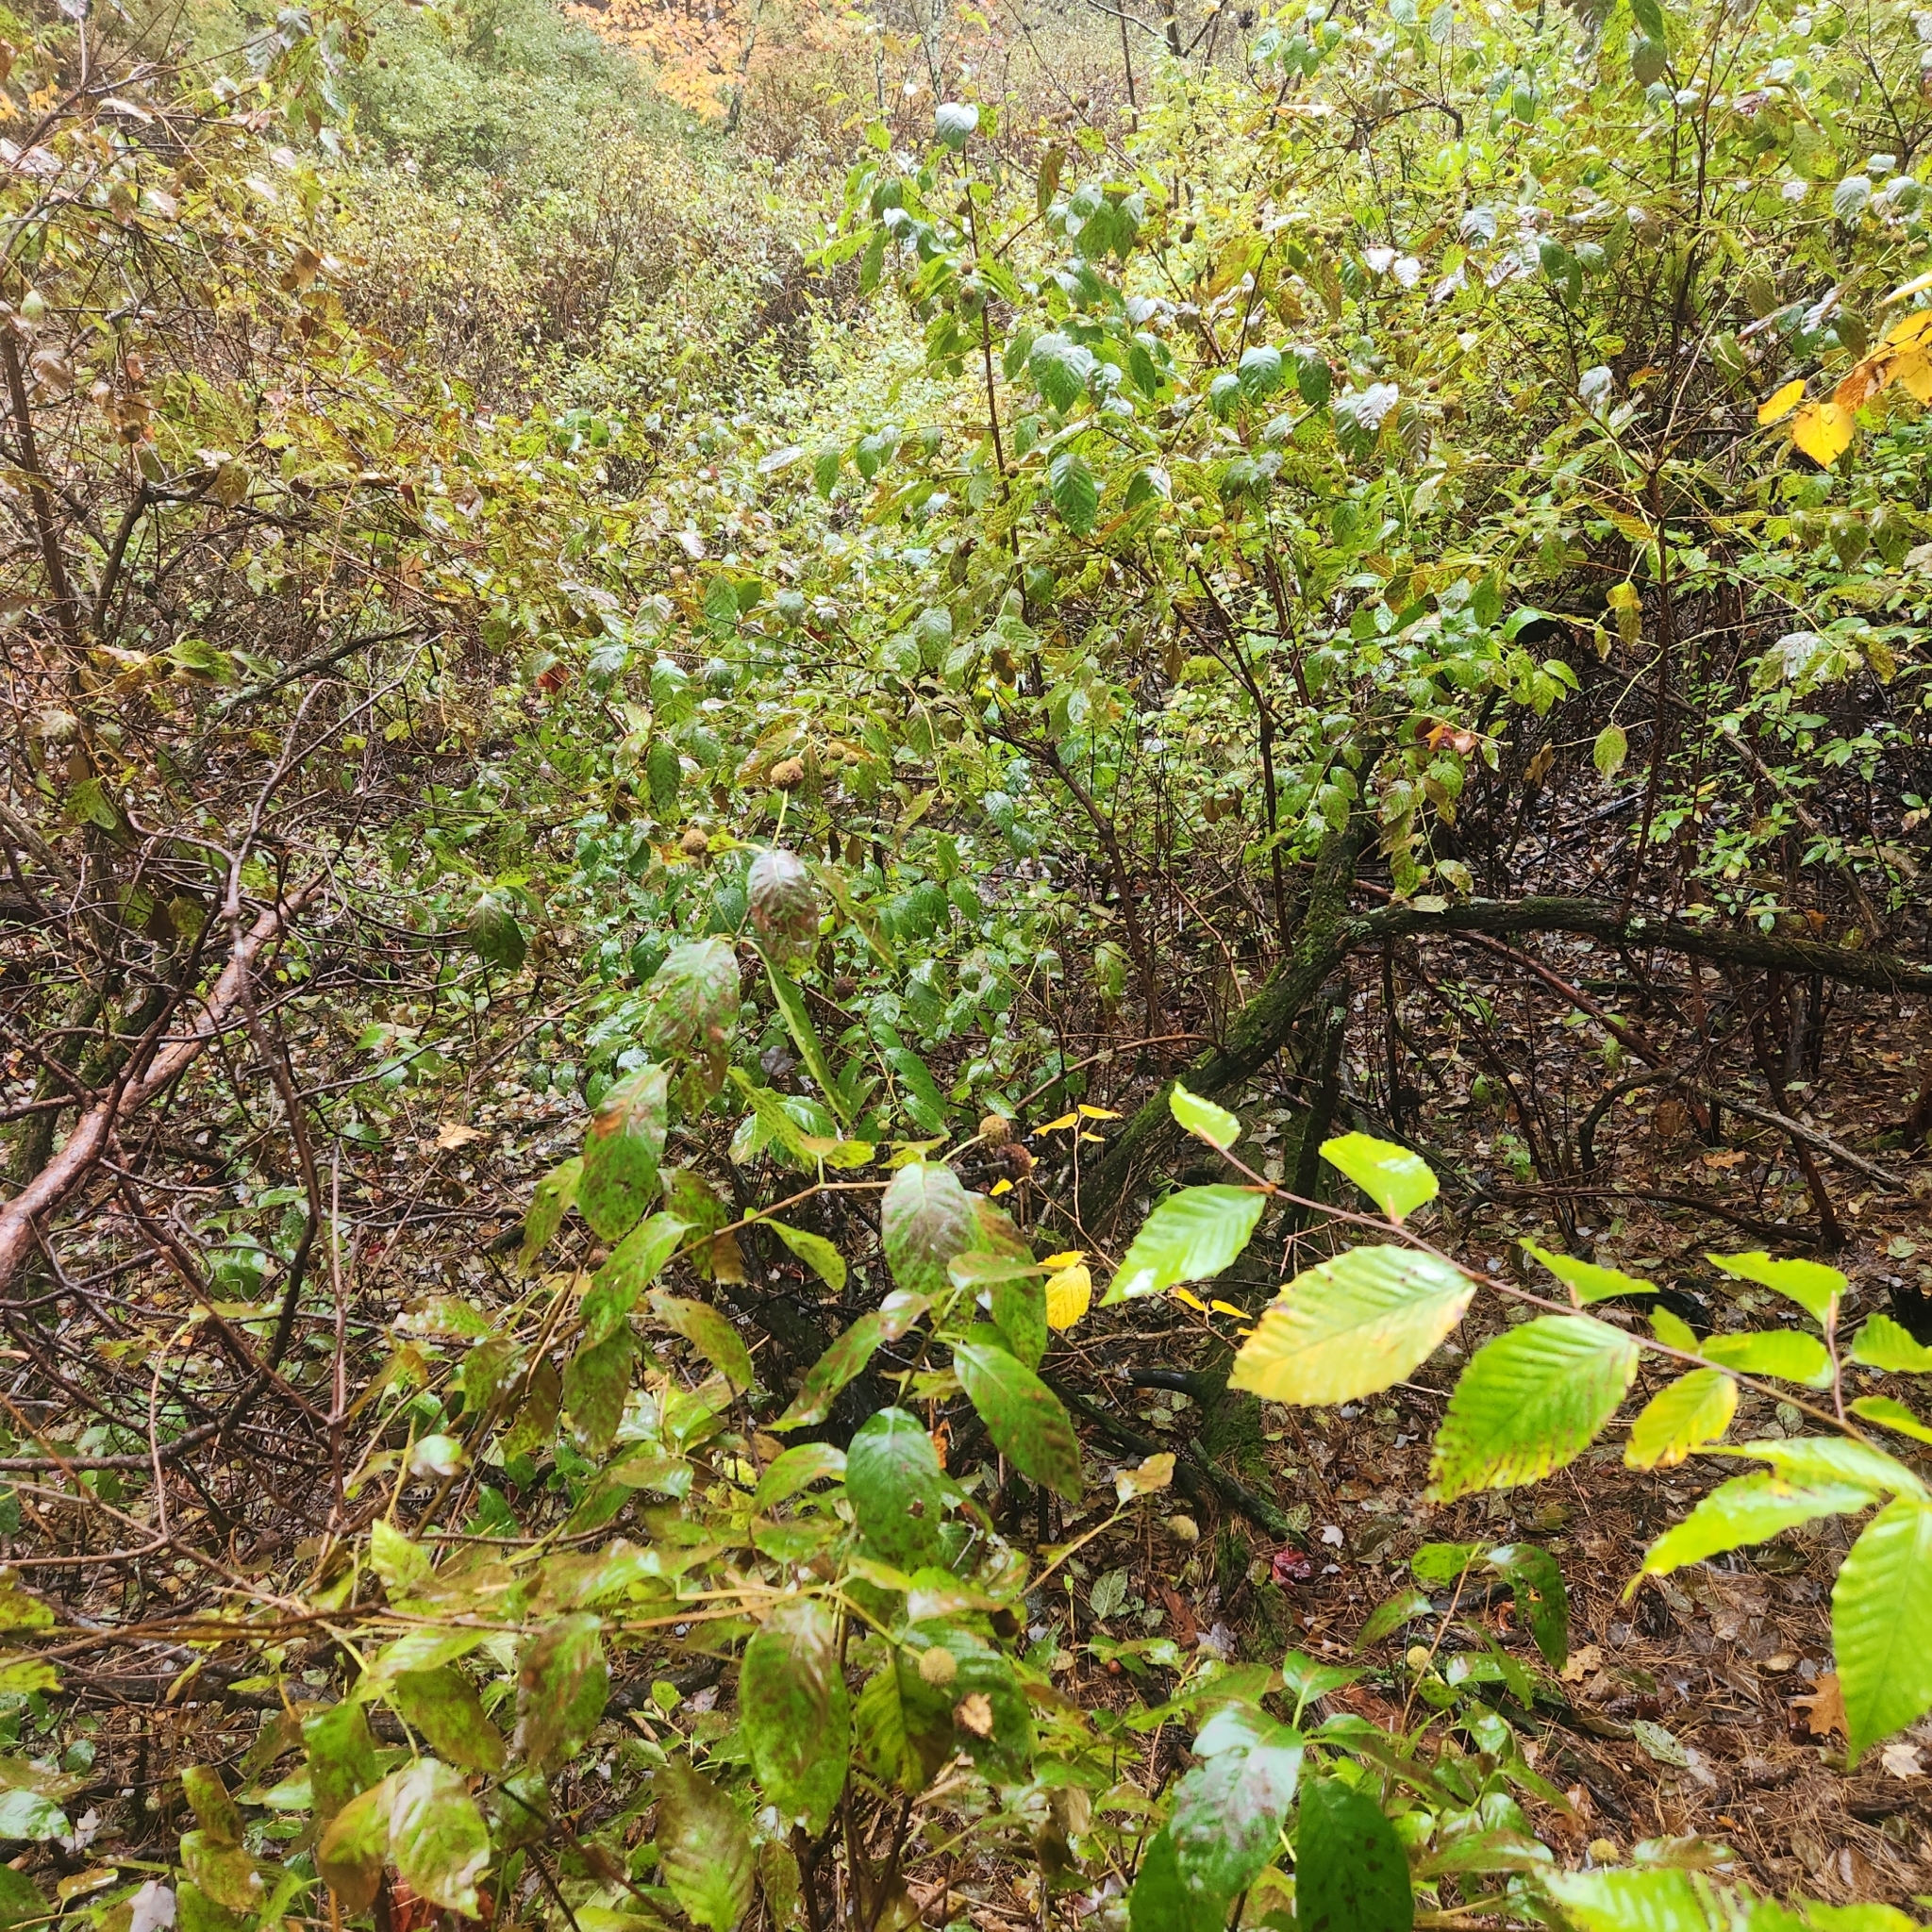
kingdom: Plantae
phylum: Tracheophyta
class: Magnoliopsida
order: Gentianales
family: Rubiaceae
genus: Cephalanthus
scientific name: Cephalanthus occidentalis
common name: Button-willow
